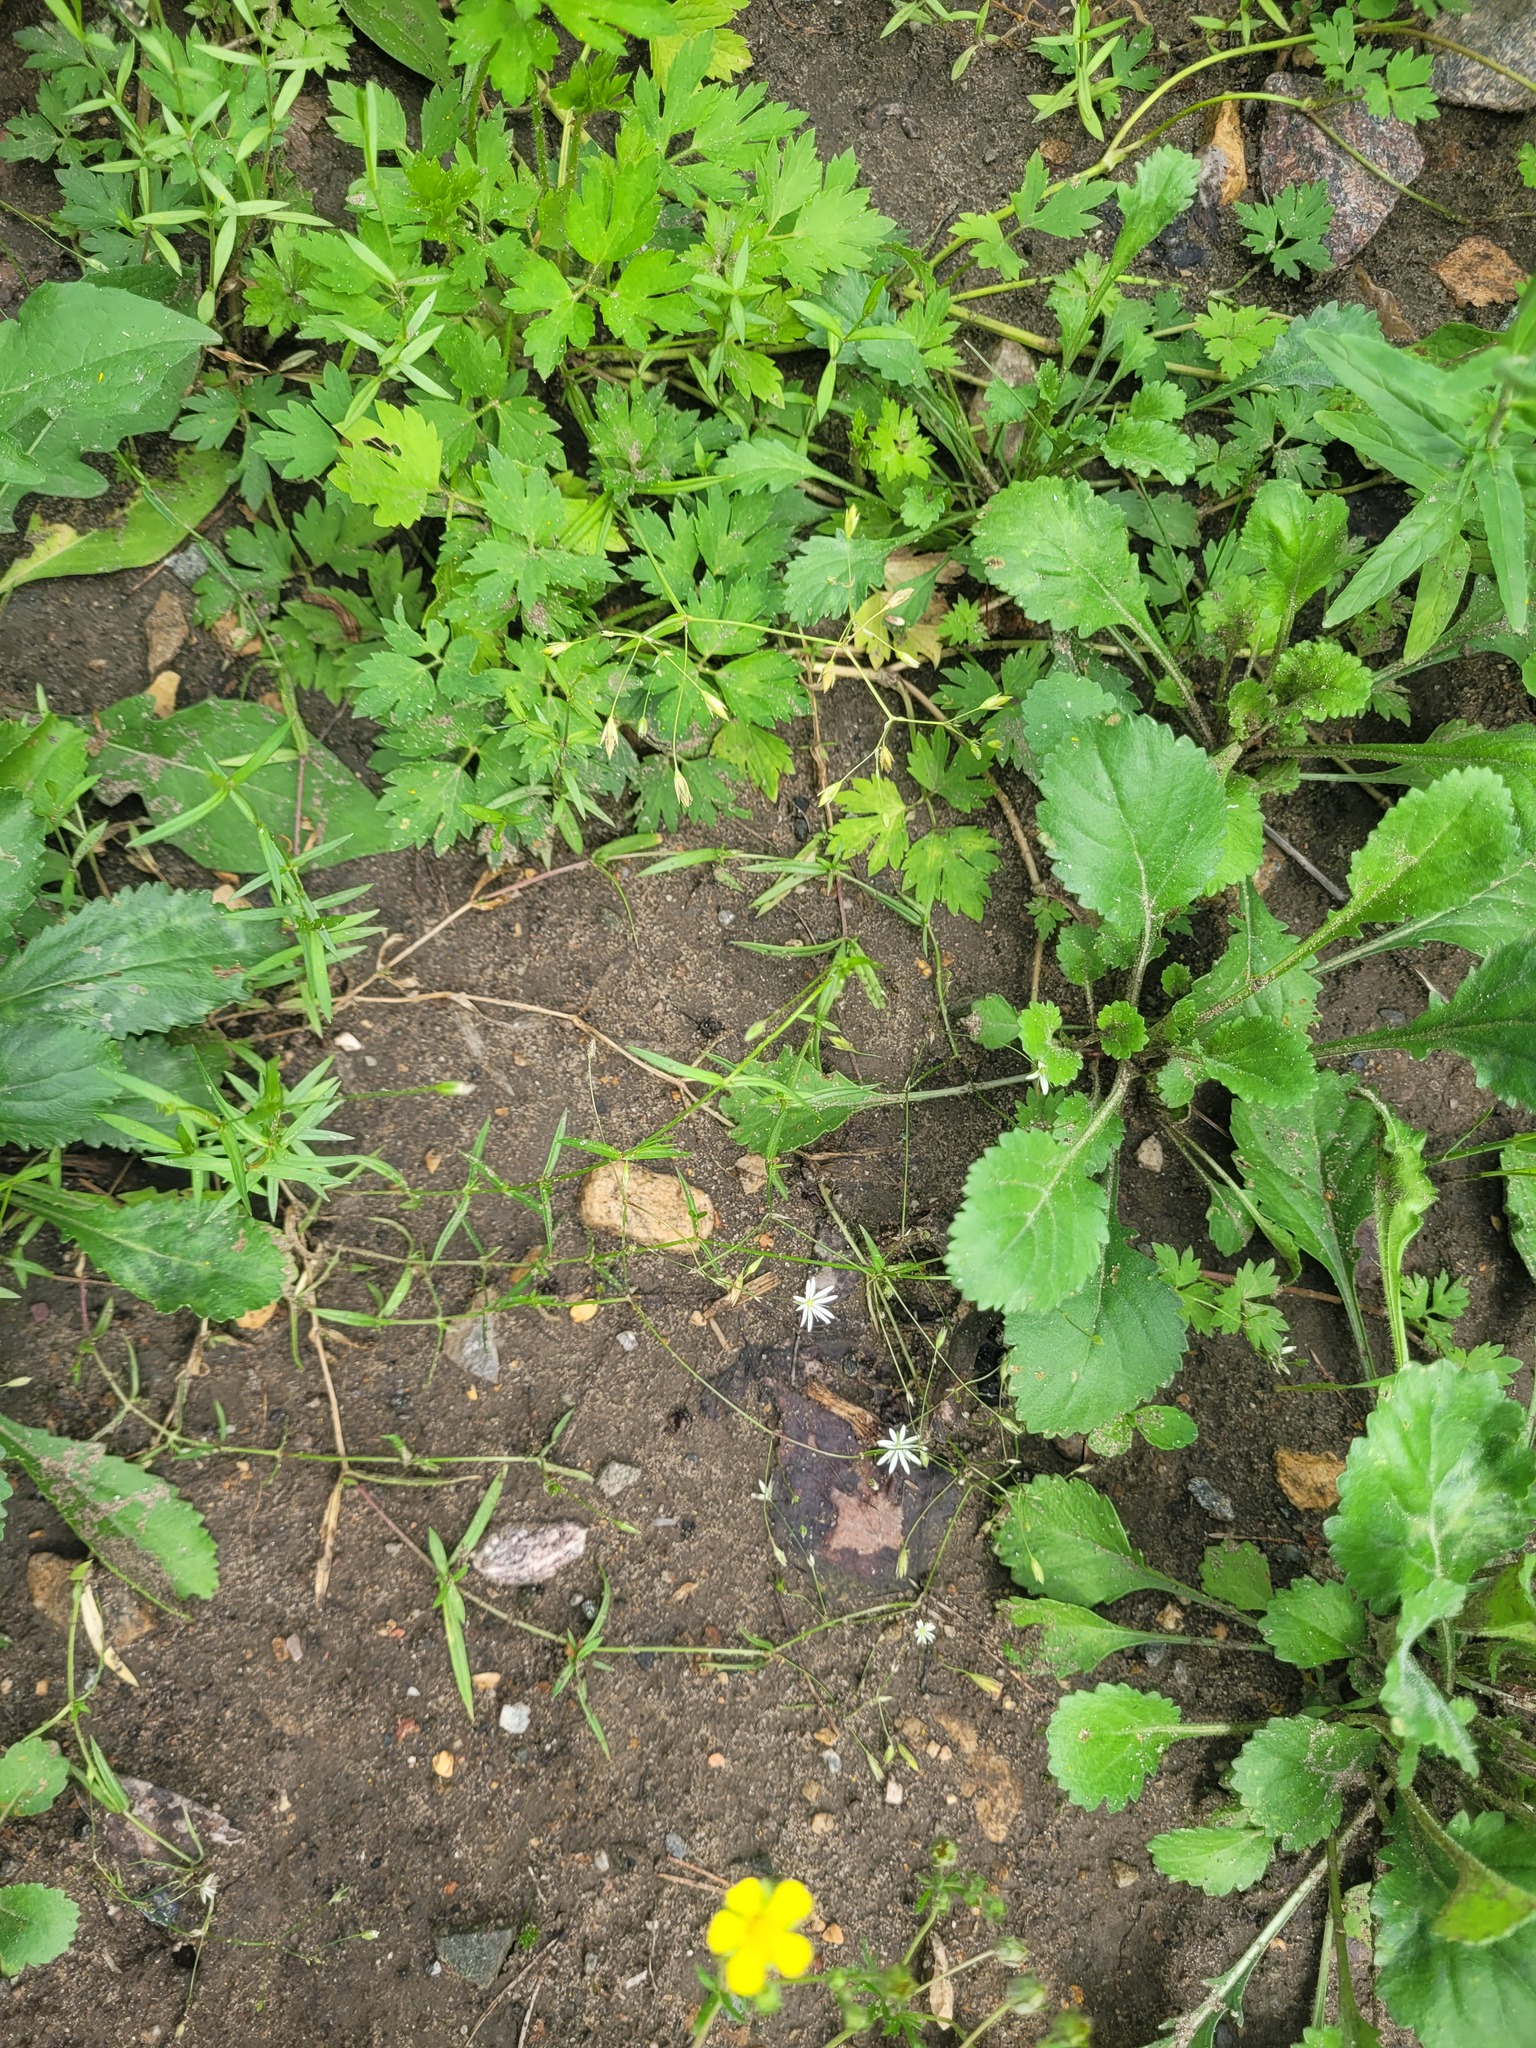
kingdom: Plantae
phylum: Tracheophyta
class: Magnoliopsida
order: Caryophyllales
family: Caryophyllaceae
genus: Stellaria
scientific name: Stellaria graminea
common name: Grass-like starwort
